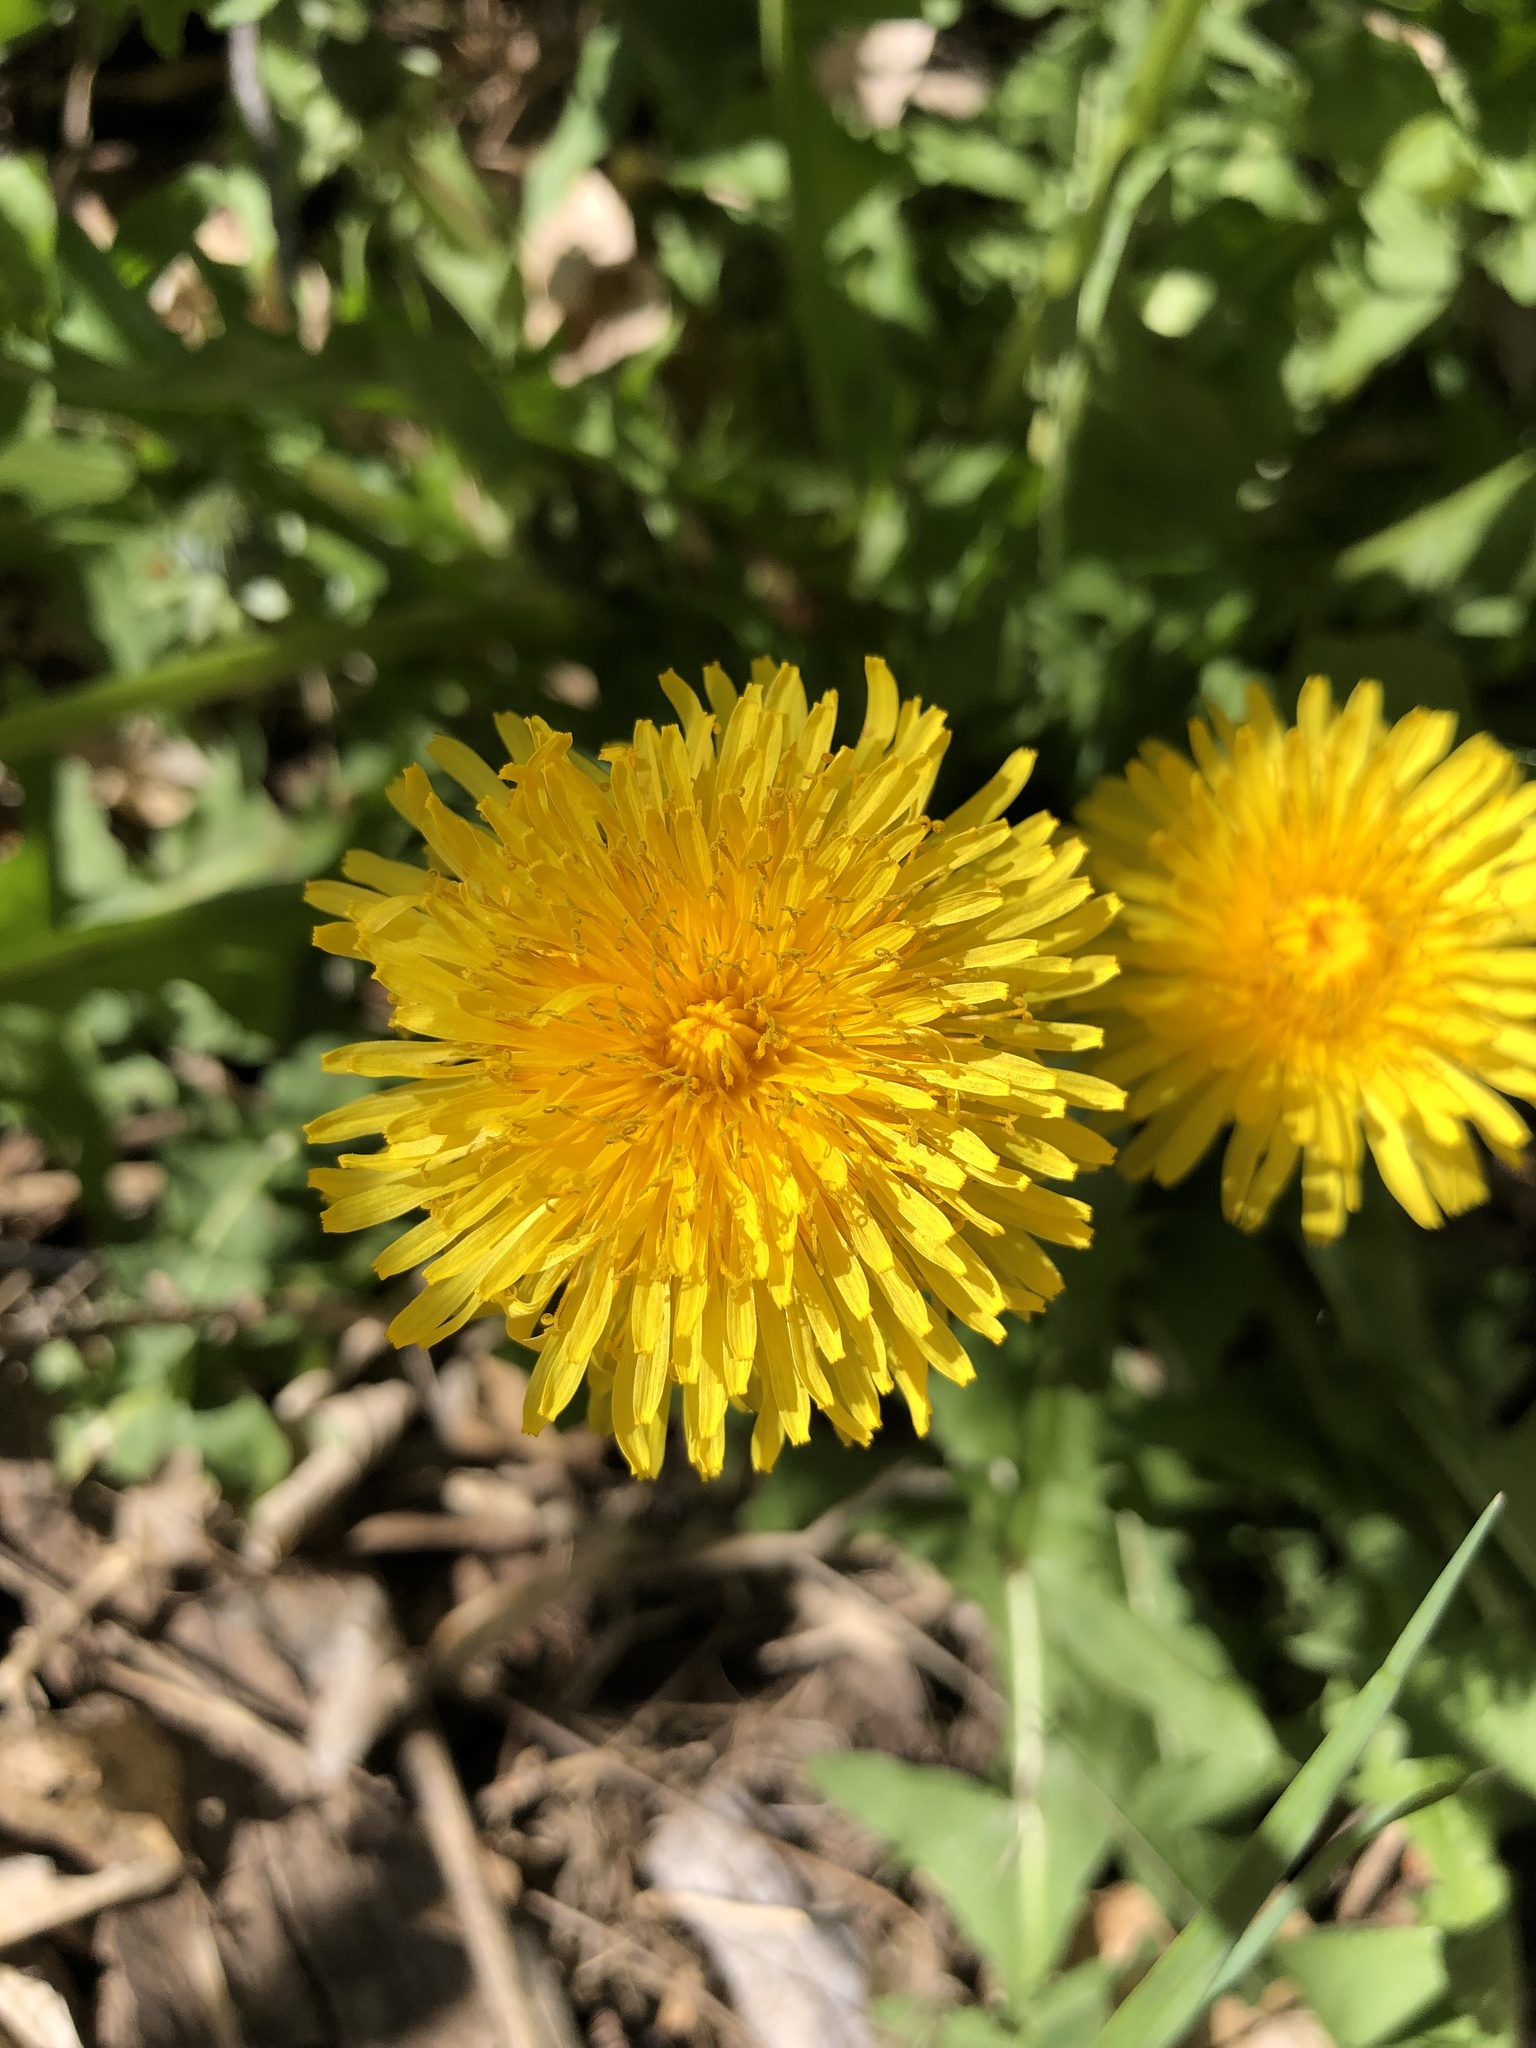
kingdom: Plantae
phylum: Tracheophyta
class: Magnoliopsida
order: Asterales
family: Asteraceae
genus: Taraxacum
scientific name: Taraxacum officinale
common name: Common dandelion
